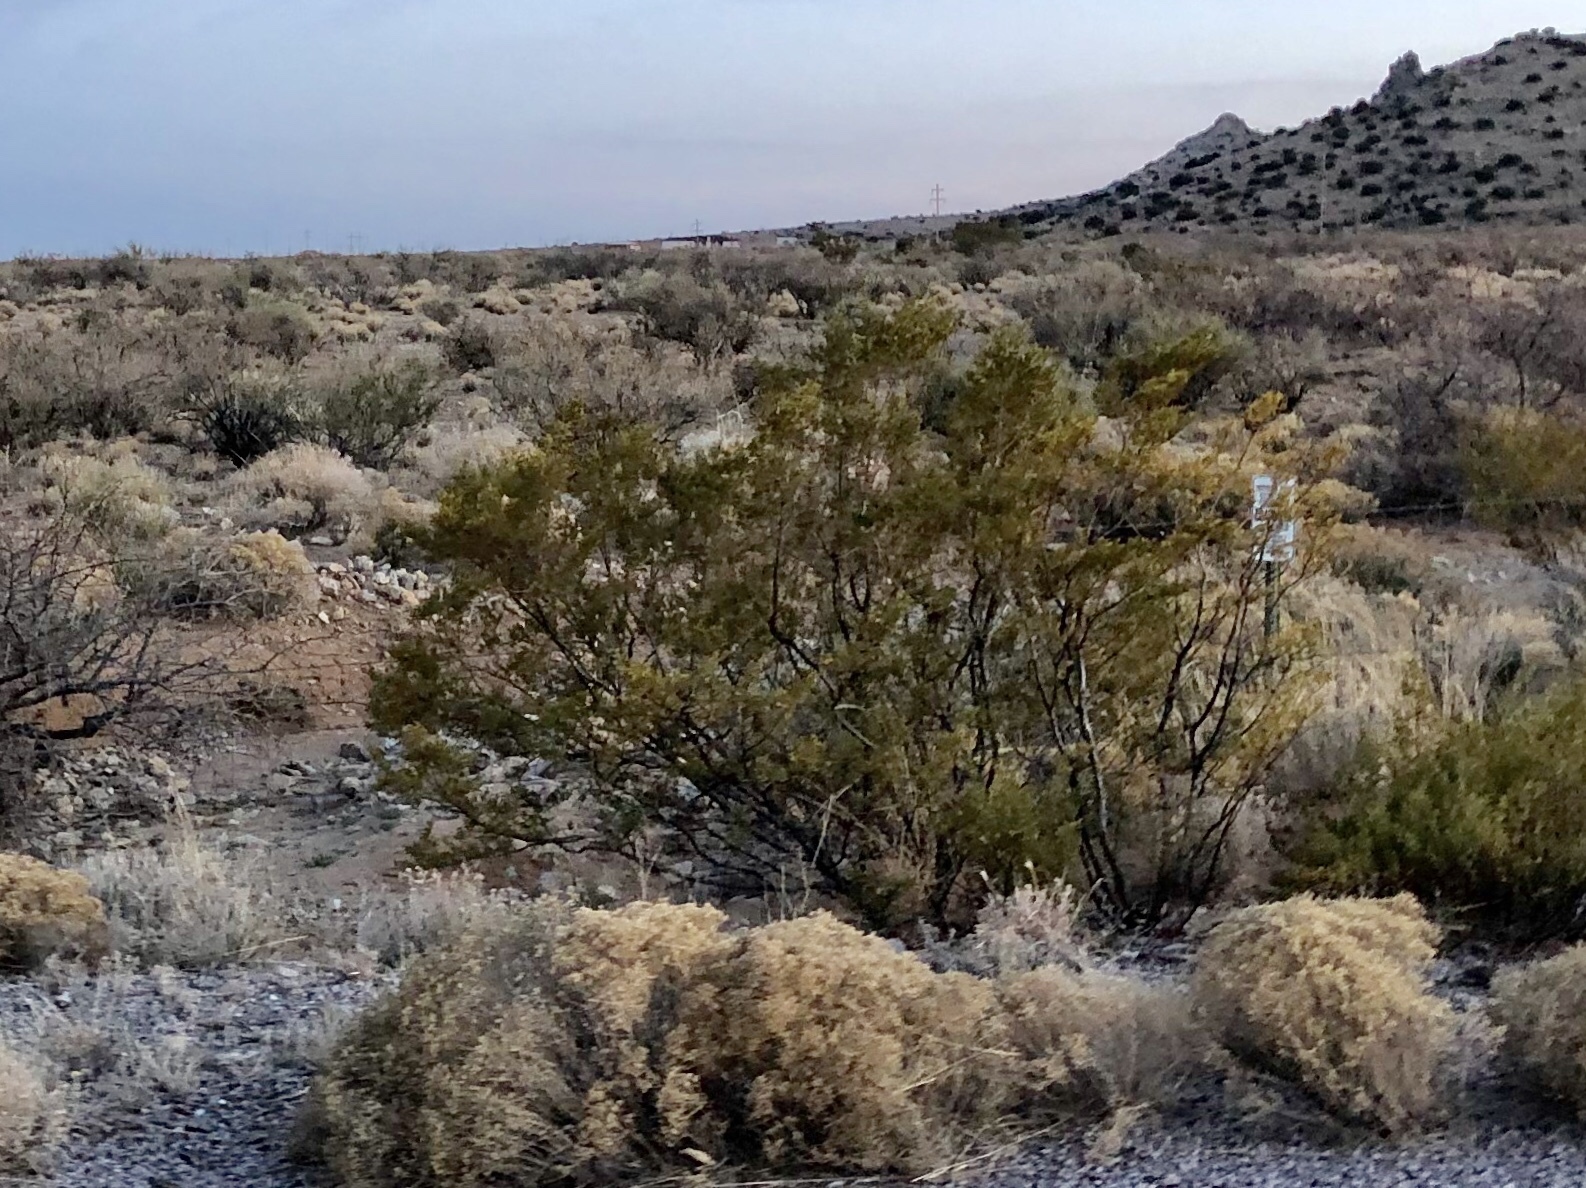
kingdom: Plantae
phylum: Tracheophyta
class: Magnoliopsida
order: Zygophyllales
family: Zygophyllaceae
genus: Larrea
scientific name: Larrea tridentata
